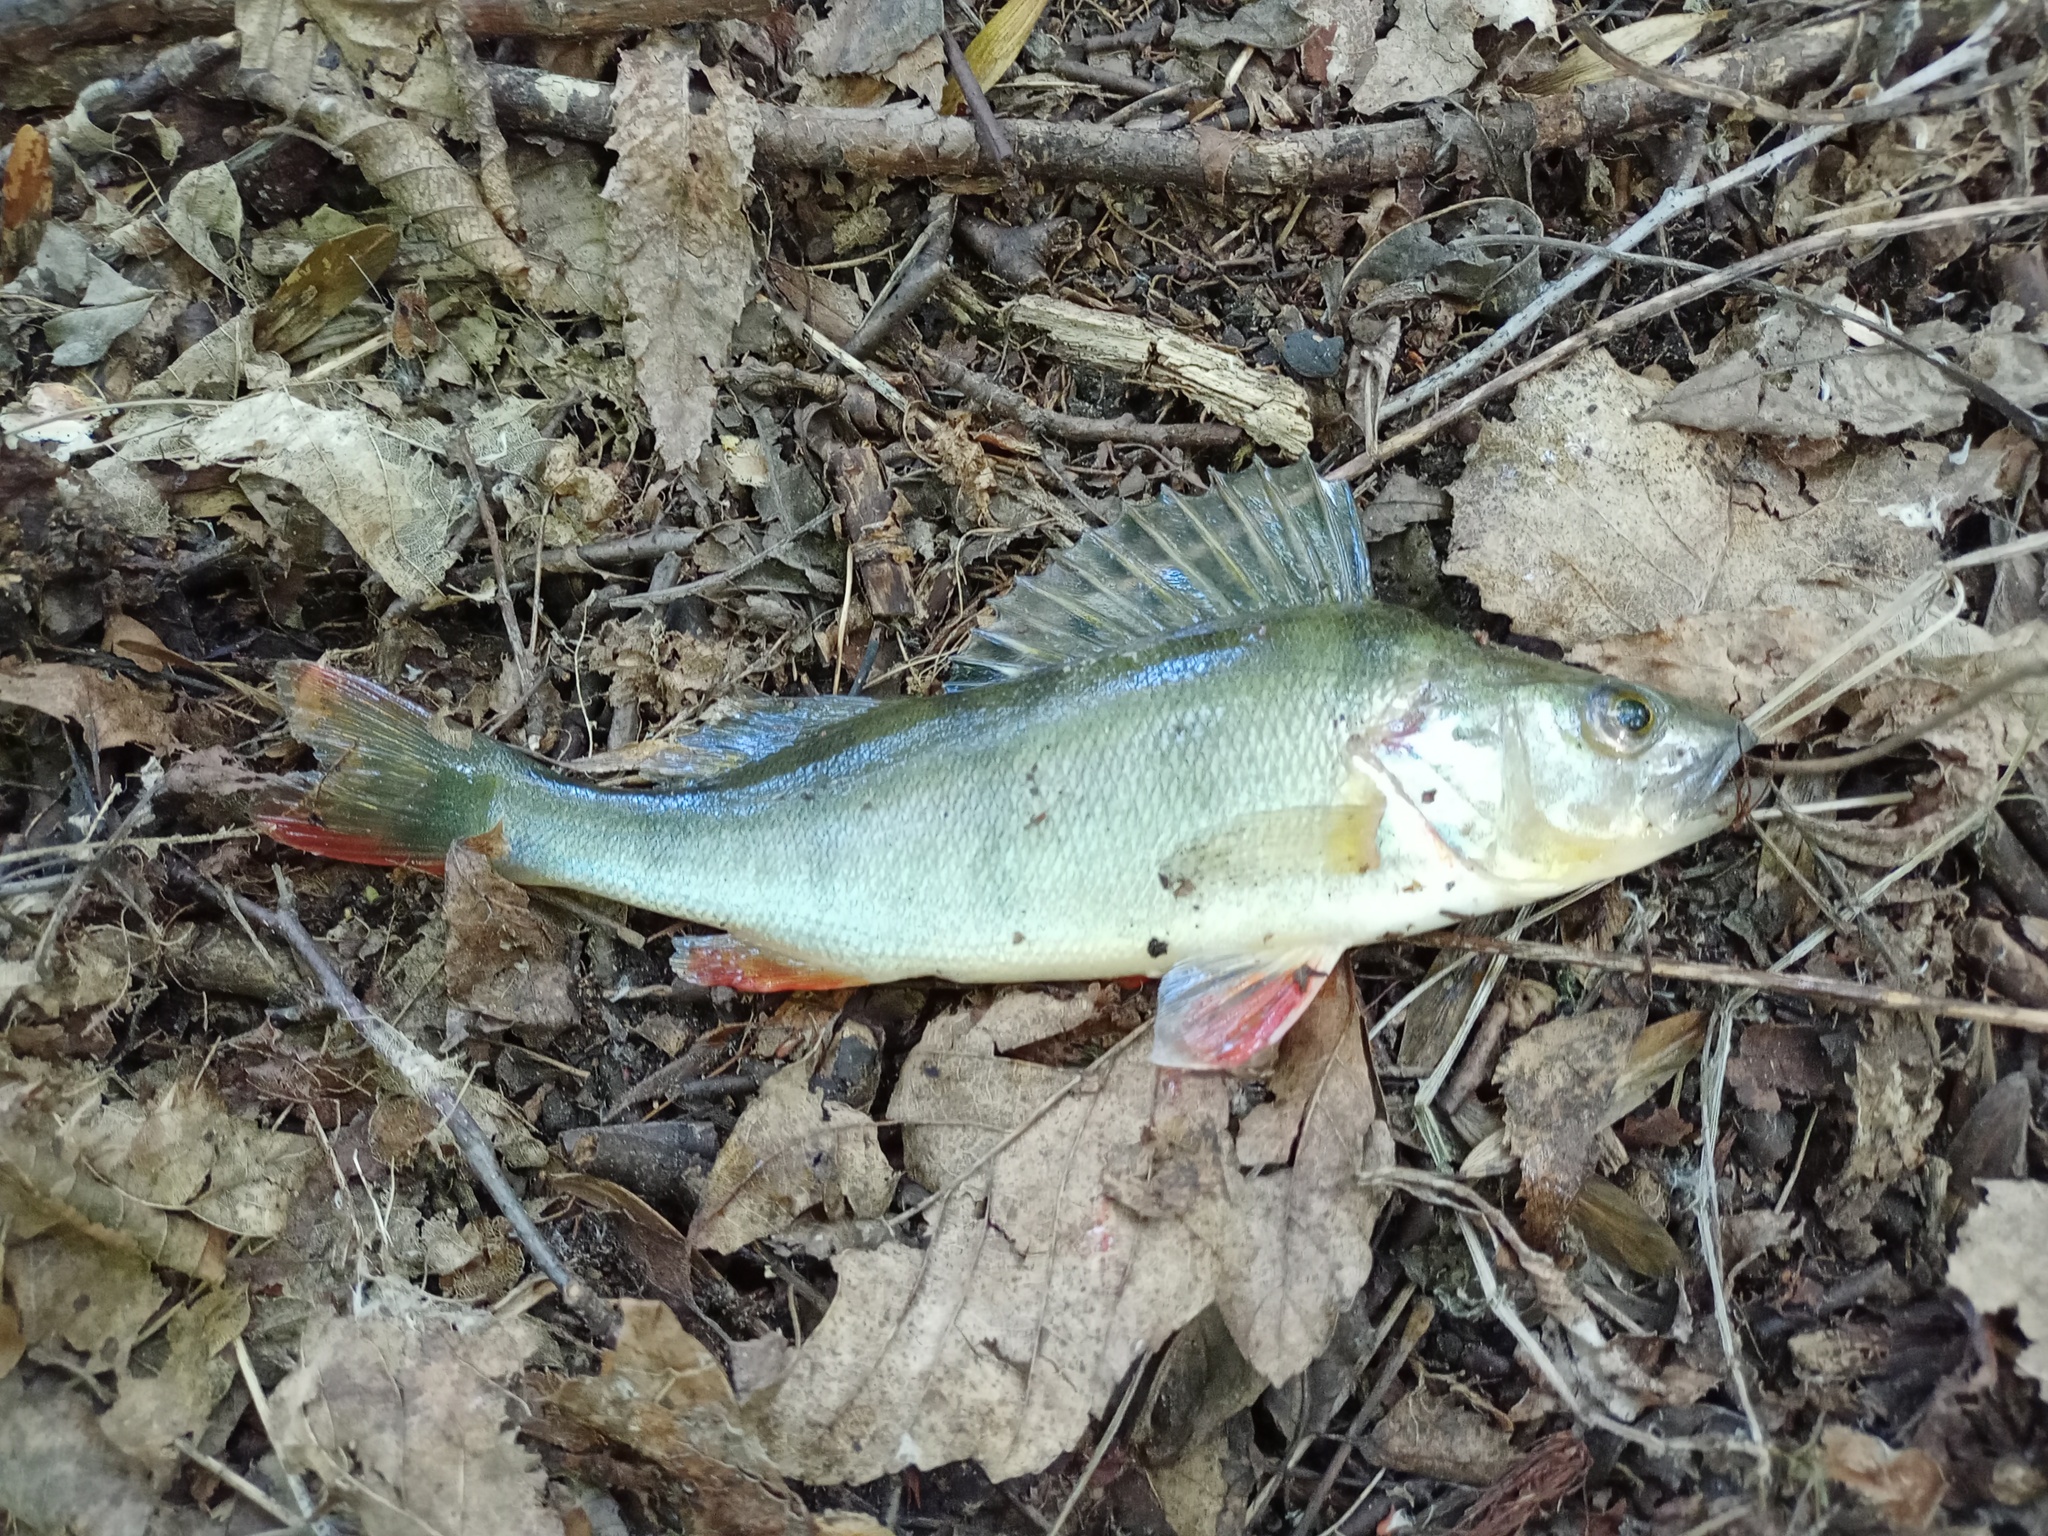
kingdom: Animalia
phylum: Chordata
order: Perciformes
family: Percidae
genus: Perca
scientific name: Perca fluviatilis
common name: Perch
